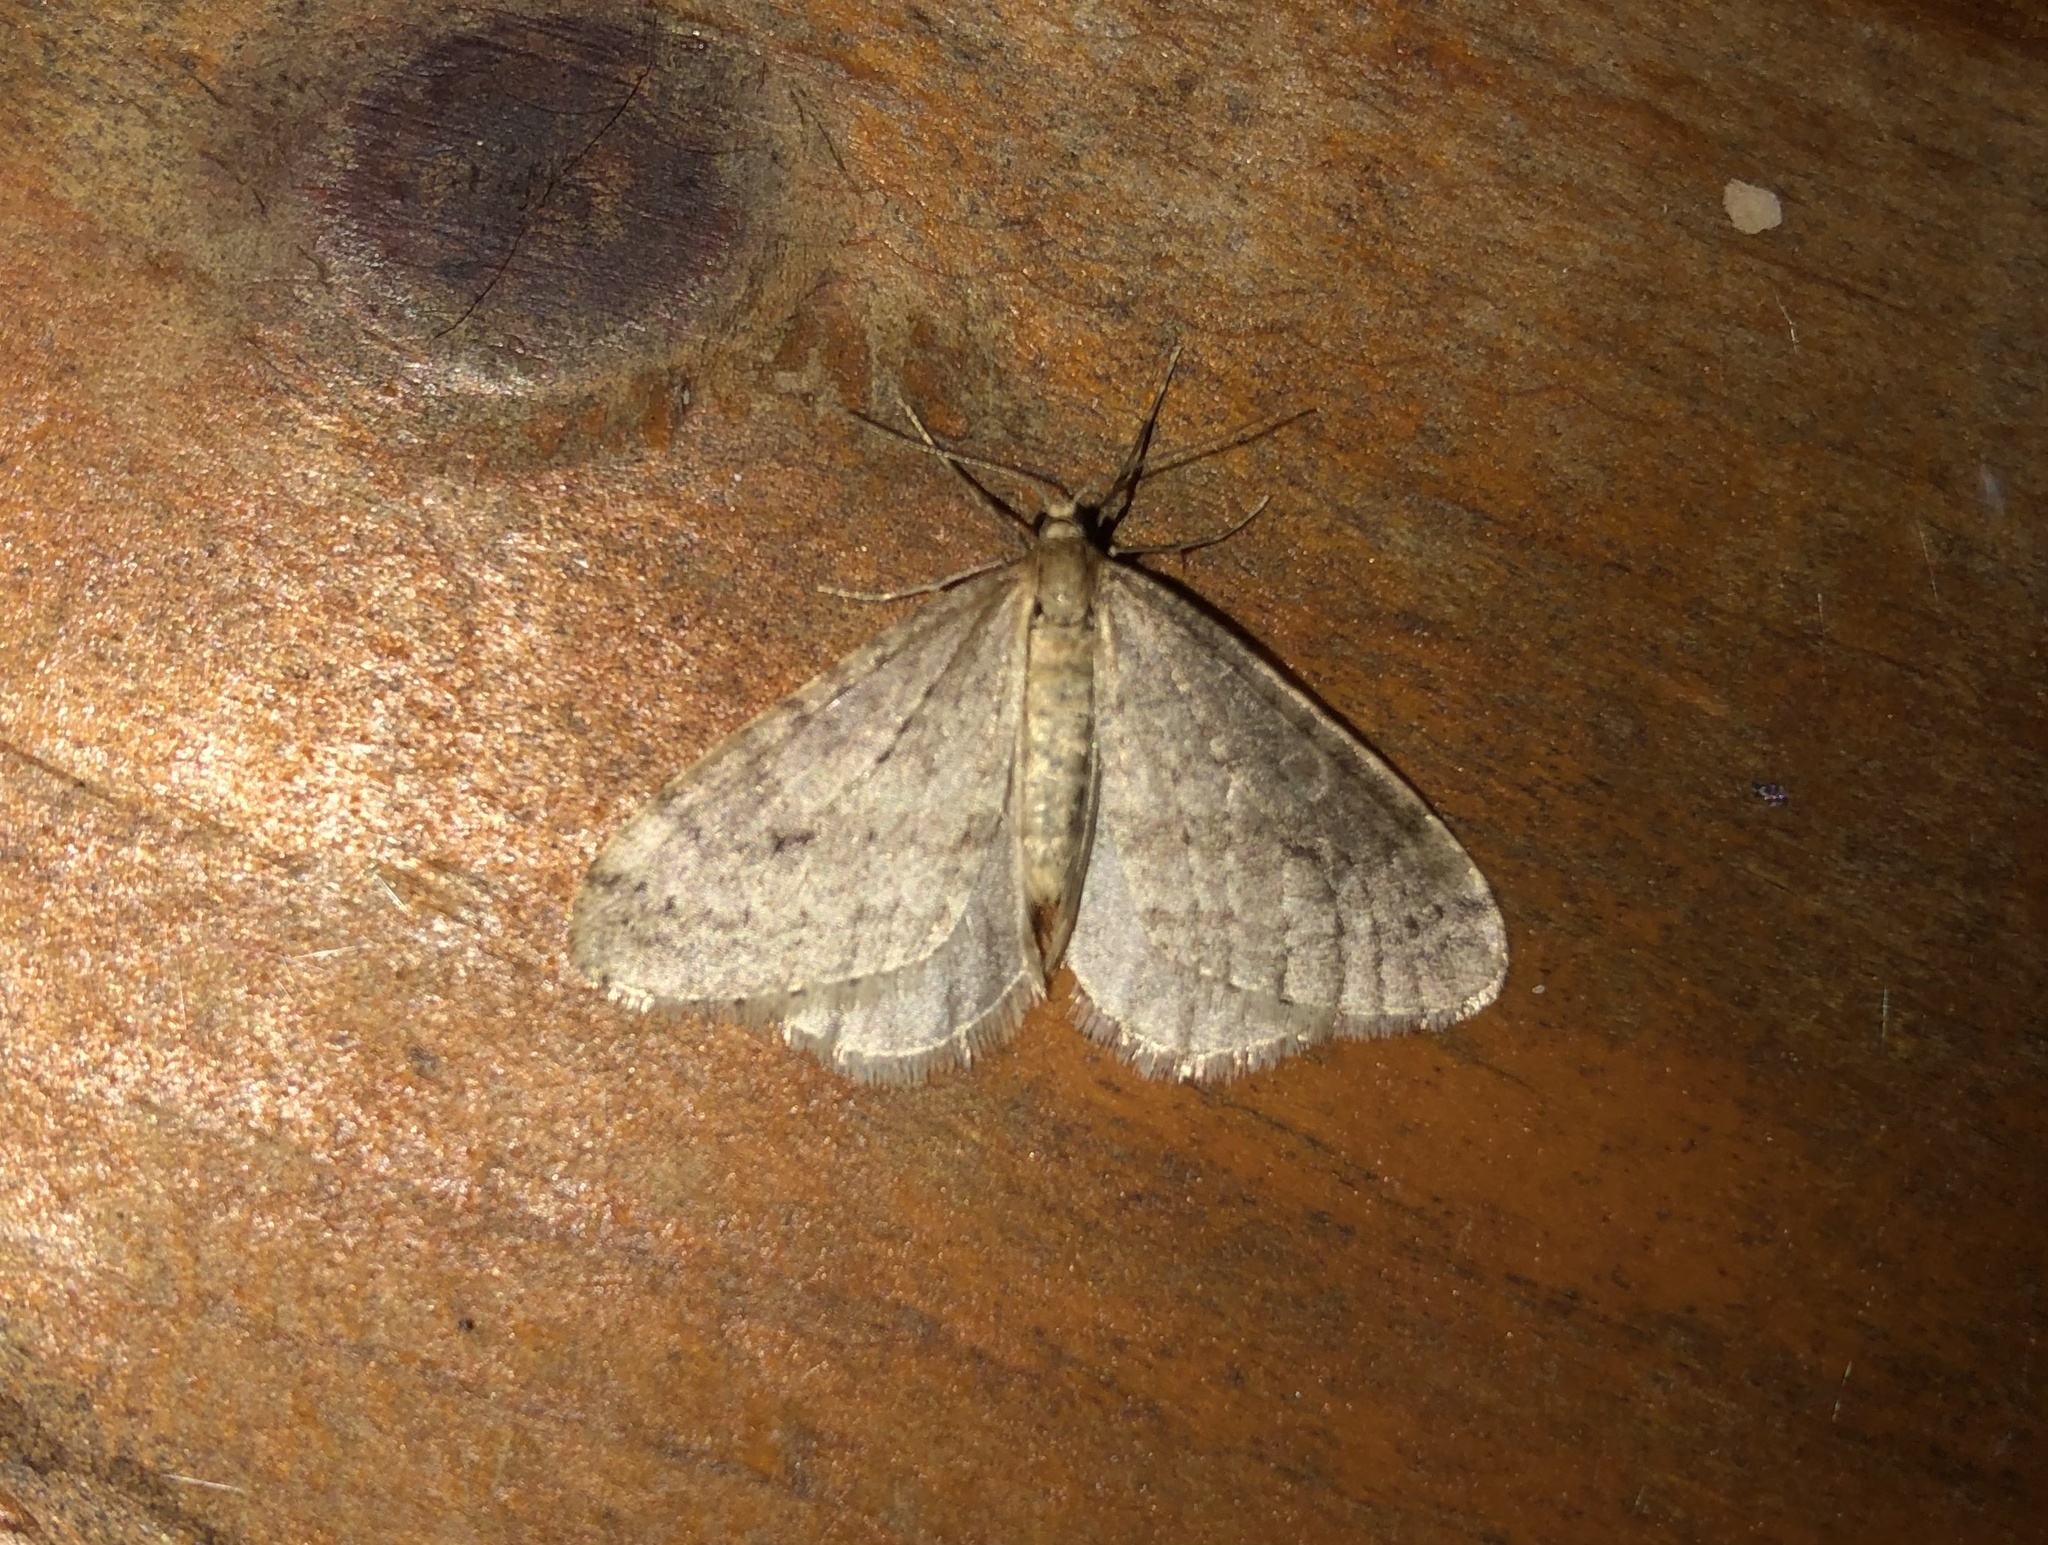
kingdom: Animalia
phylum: Arthropoda
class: Insecta
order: Lepidoptera
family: Geometridae
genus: Operophtera
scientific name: Operophtera bruceata
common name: Bruce spanworm
